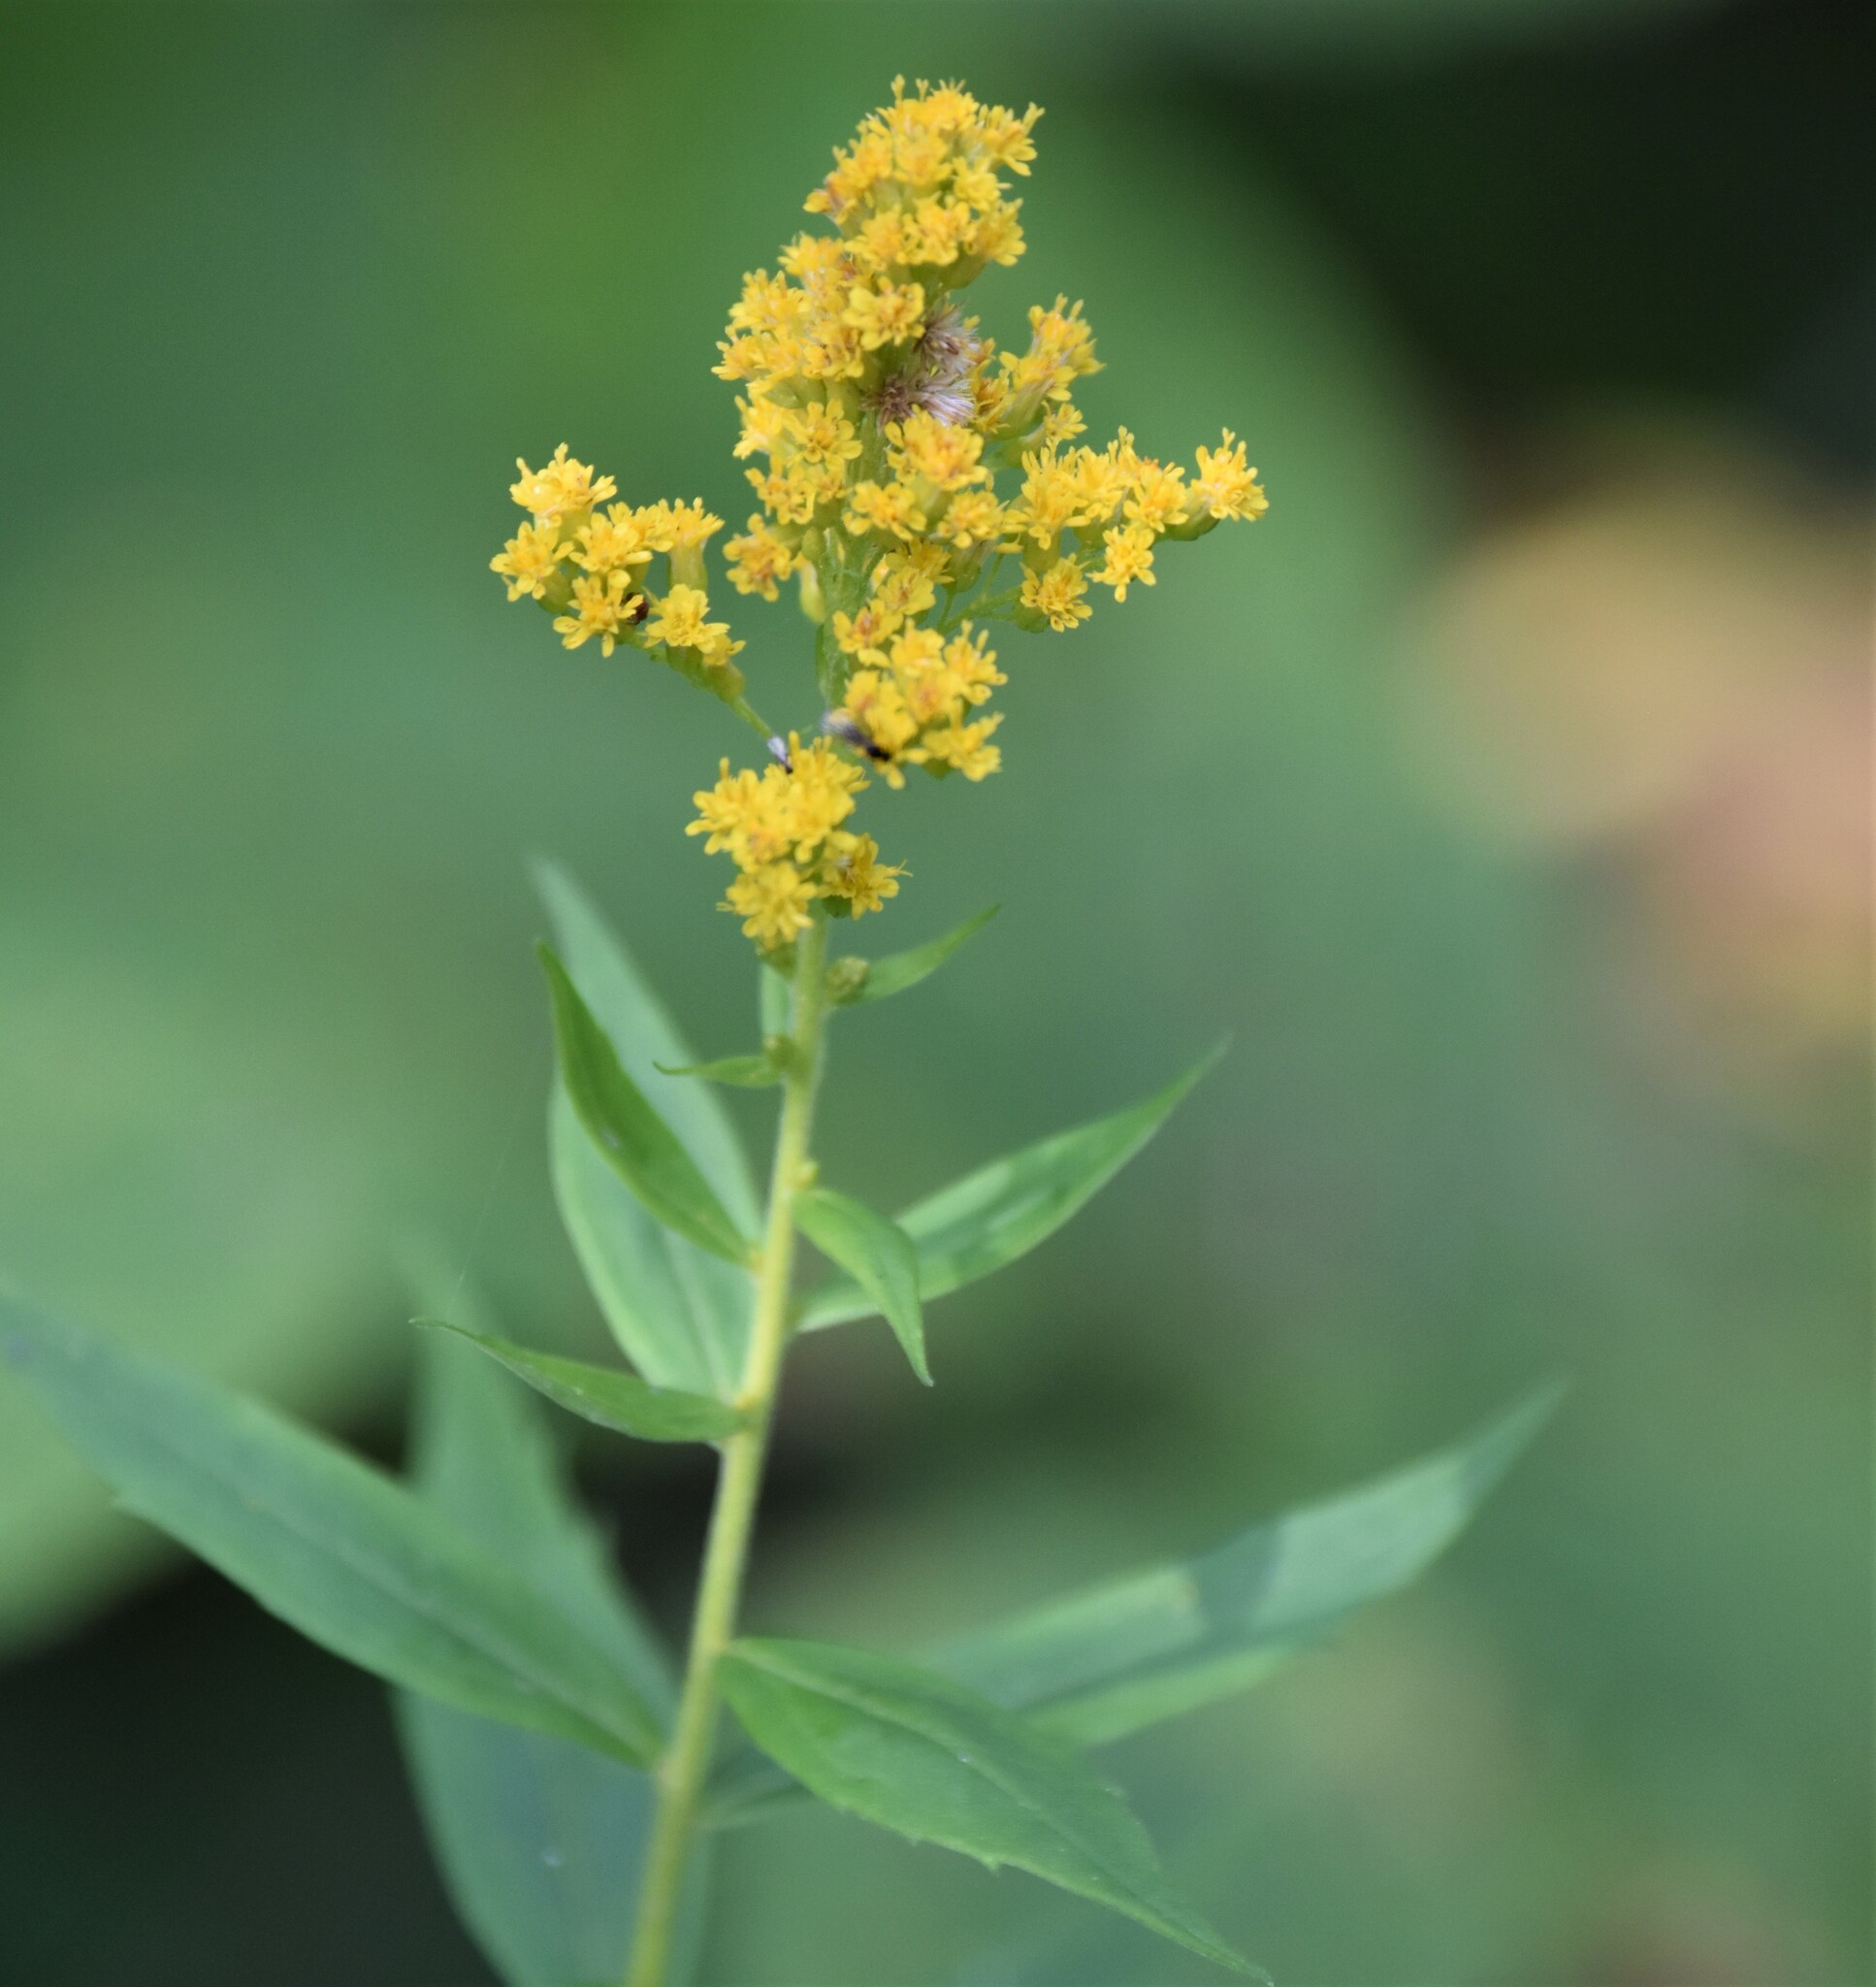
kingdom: Plantae
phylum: Tracheophyta
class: Magnoliopsida
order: Asterales
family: Asteraceae
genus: Solidago
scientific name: Solidago lepida
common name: Western canada goldenrod
